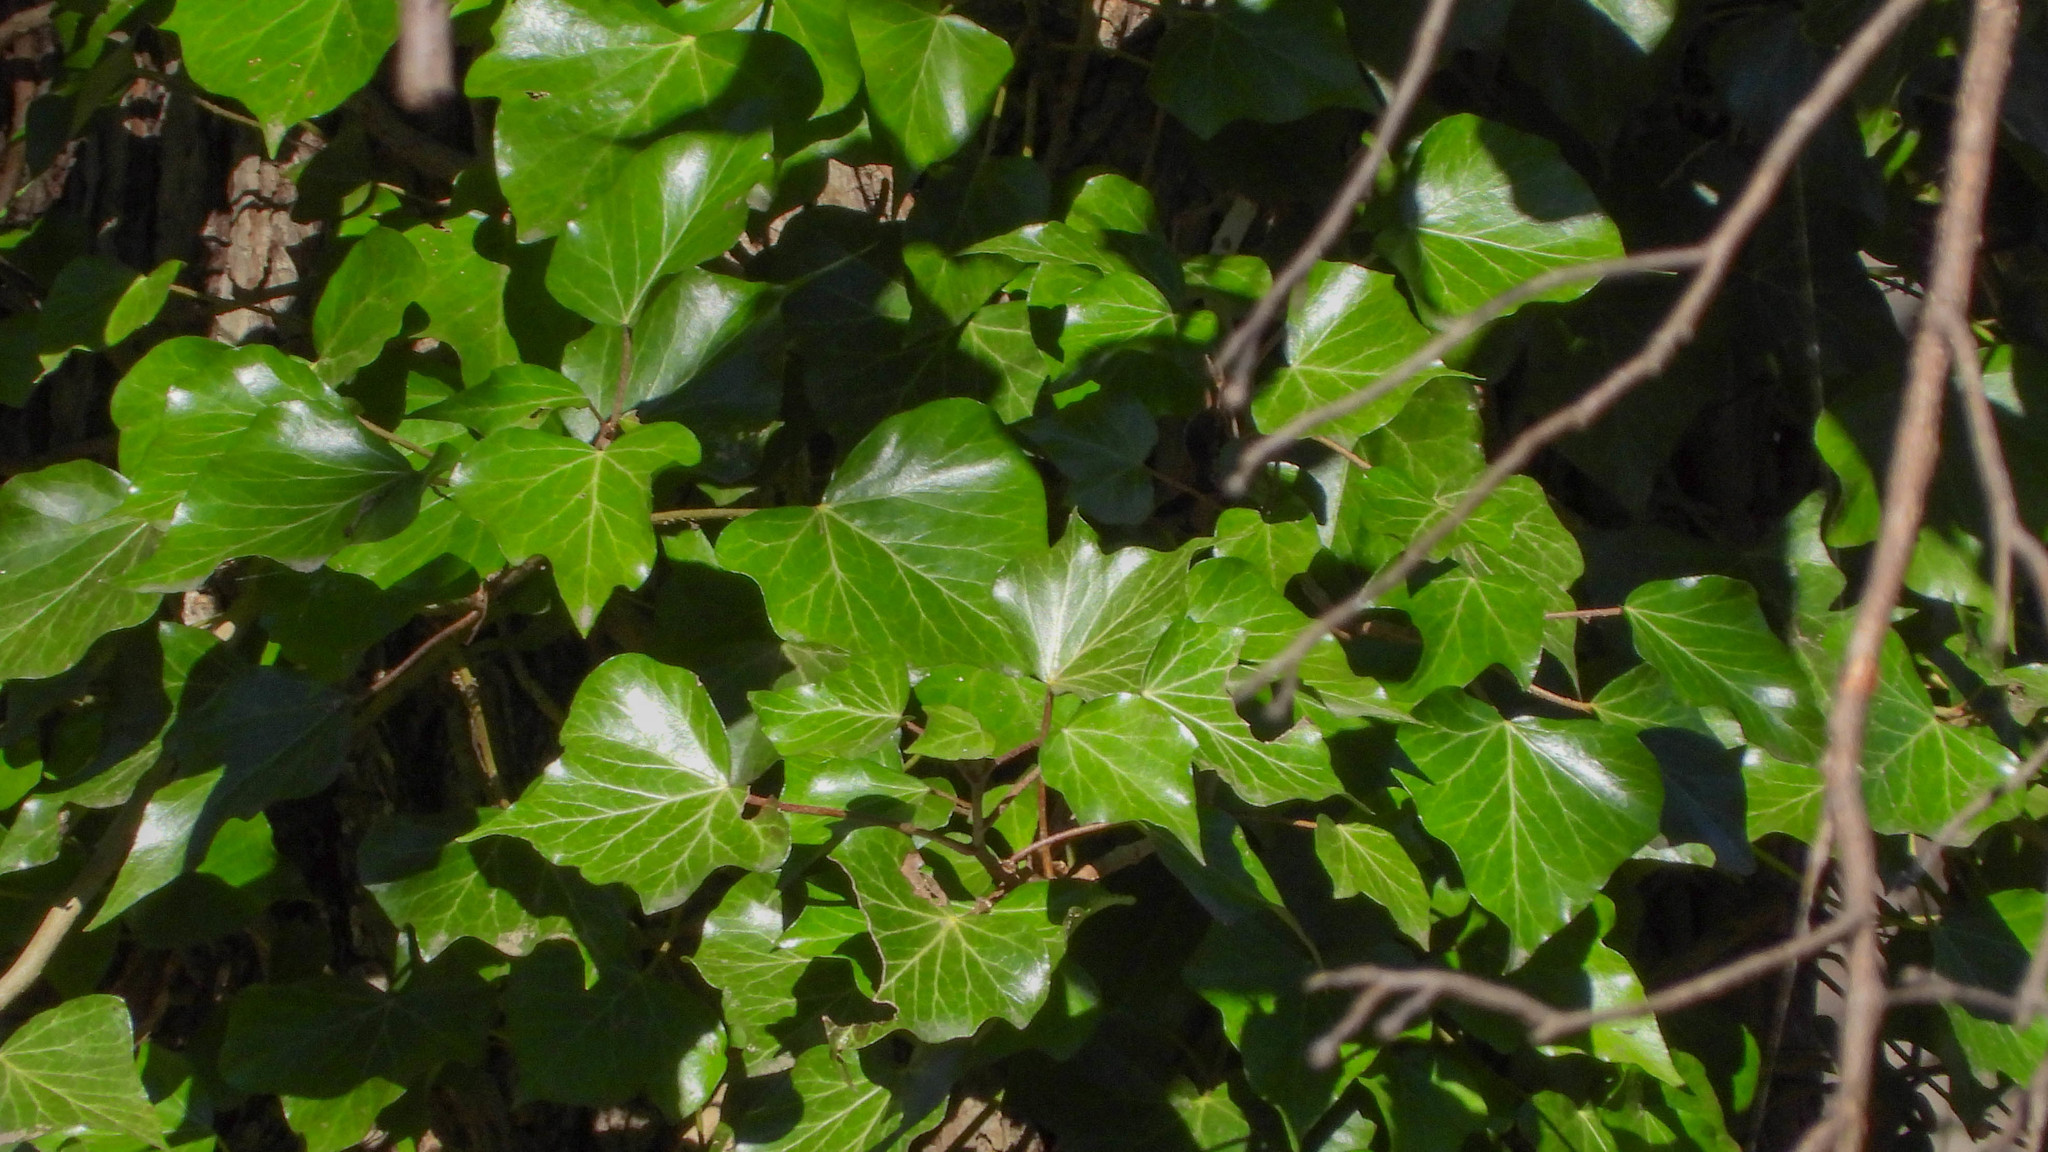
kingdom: Plantae
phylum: Tracheophyta
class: Magnoliopsida
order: Apiales
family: Araliaceae
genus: Hedera
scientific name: Hedera helix
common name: Ivy
